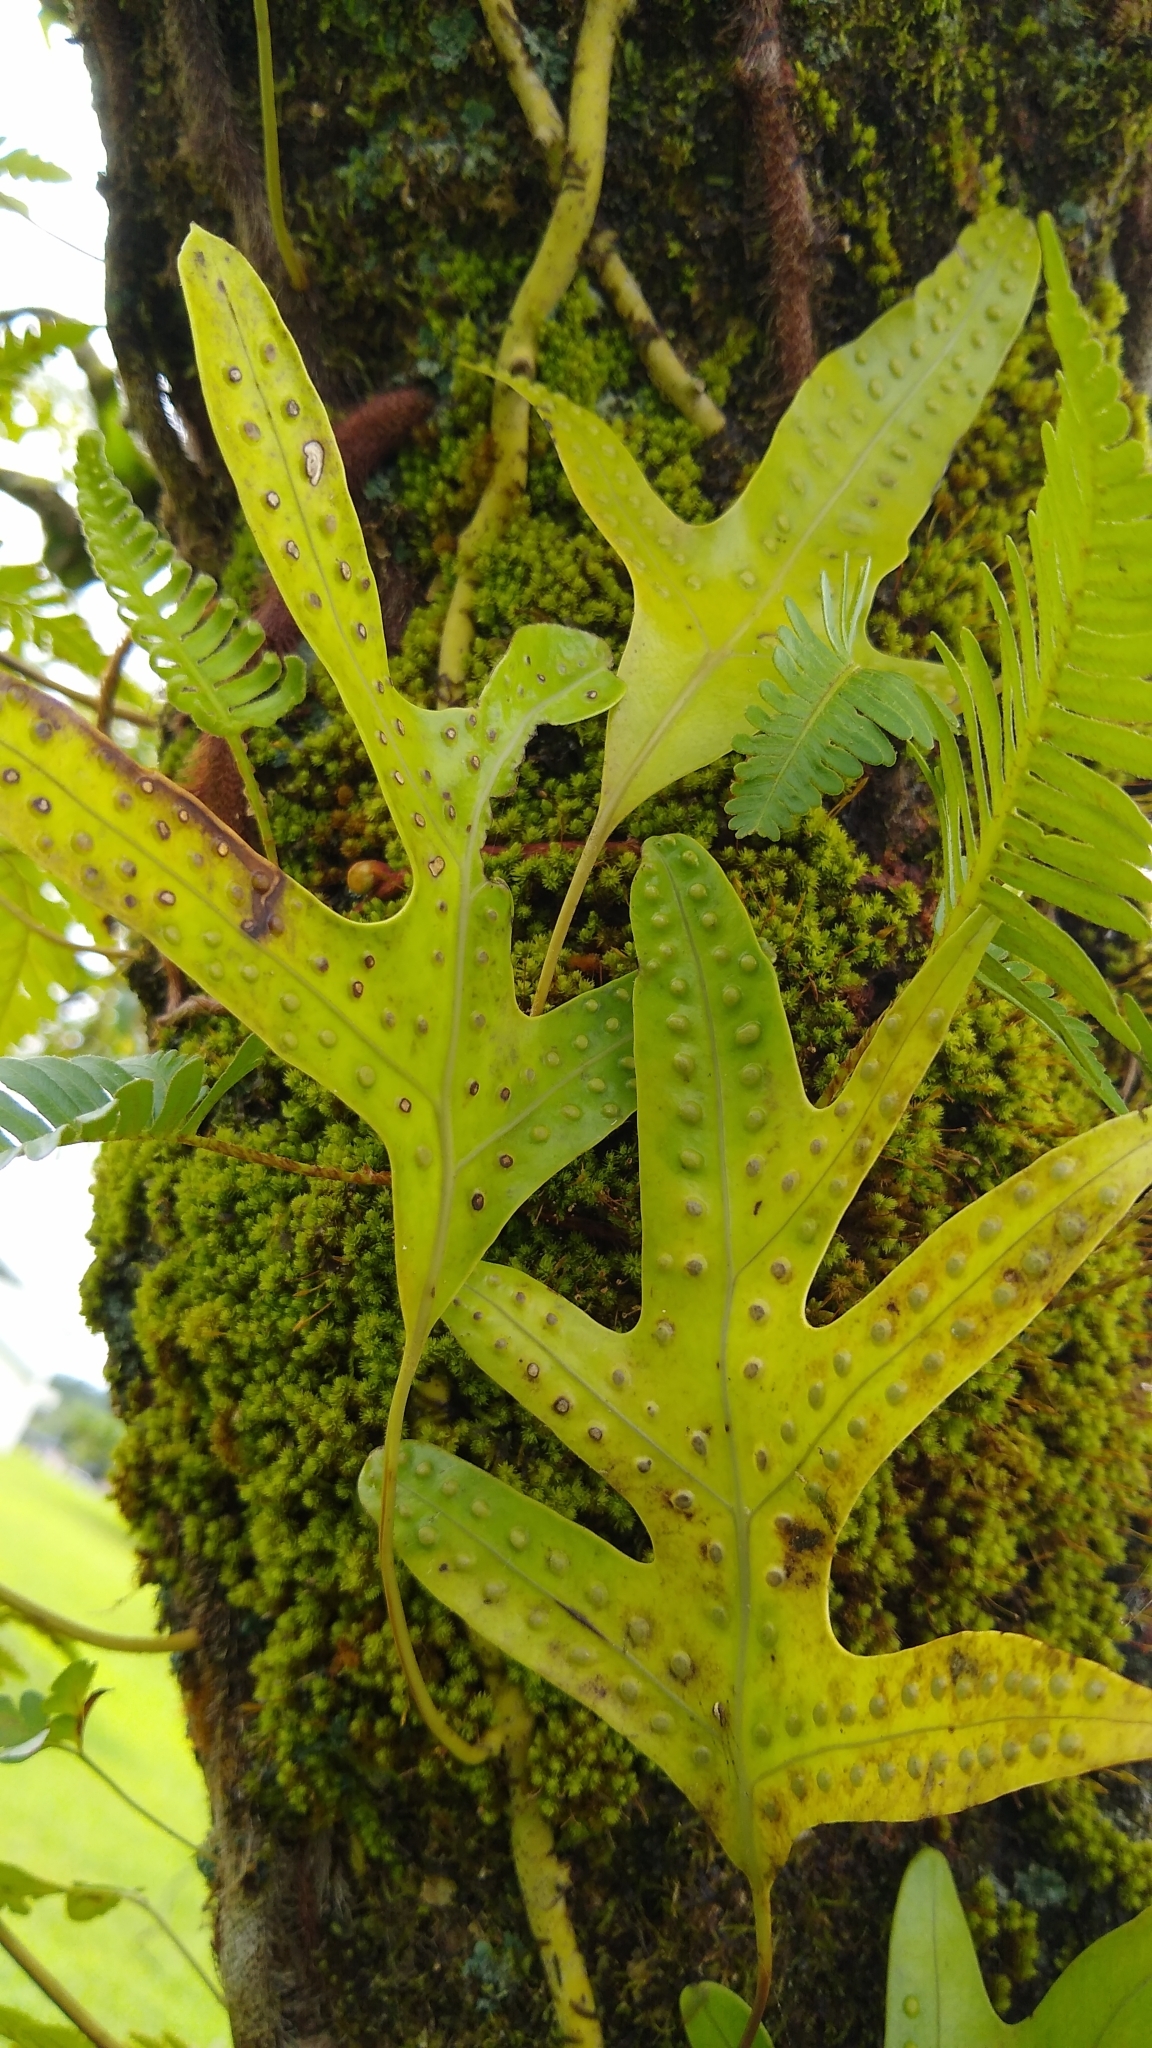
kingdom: Plantae
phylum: Tracheophyta
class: Polypodiopsida
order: Polypodiales
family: Polypodiaceae
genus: Microsorum
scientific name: Microsorum scolopendria
